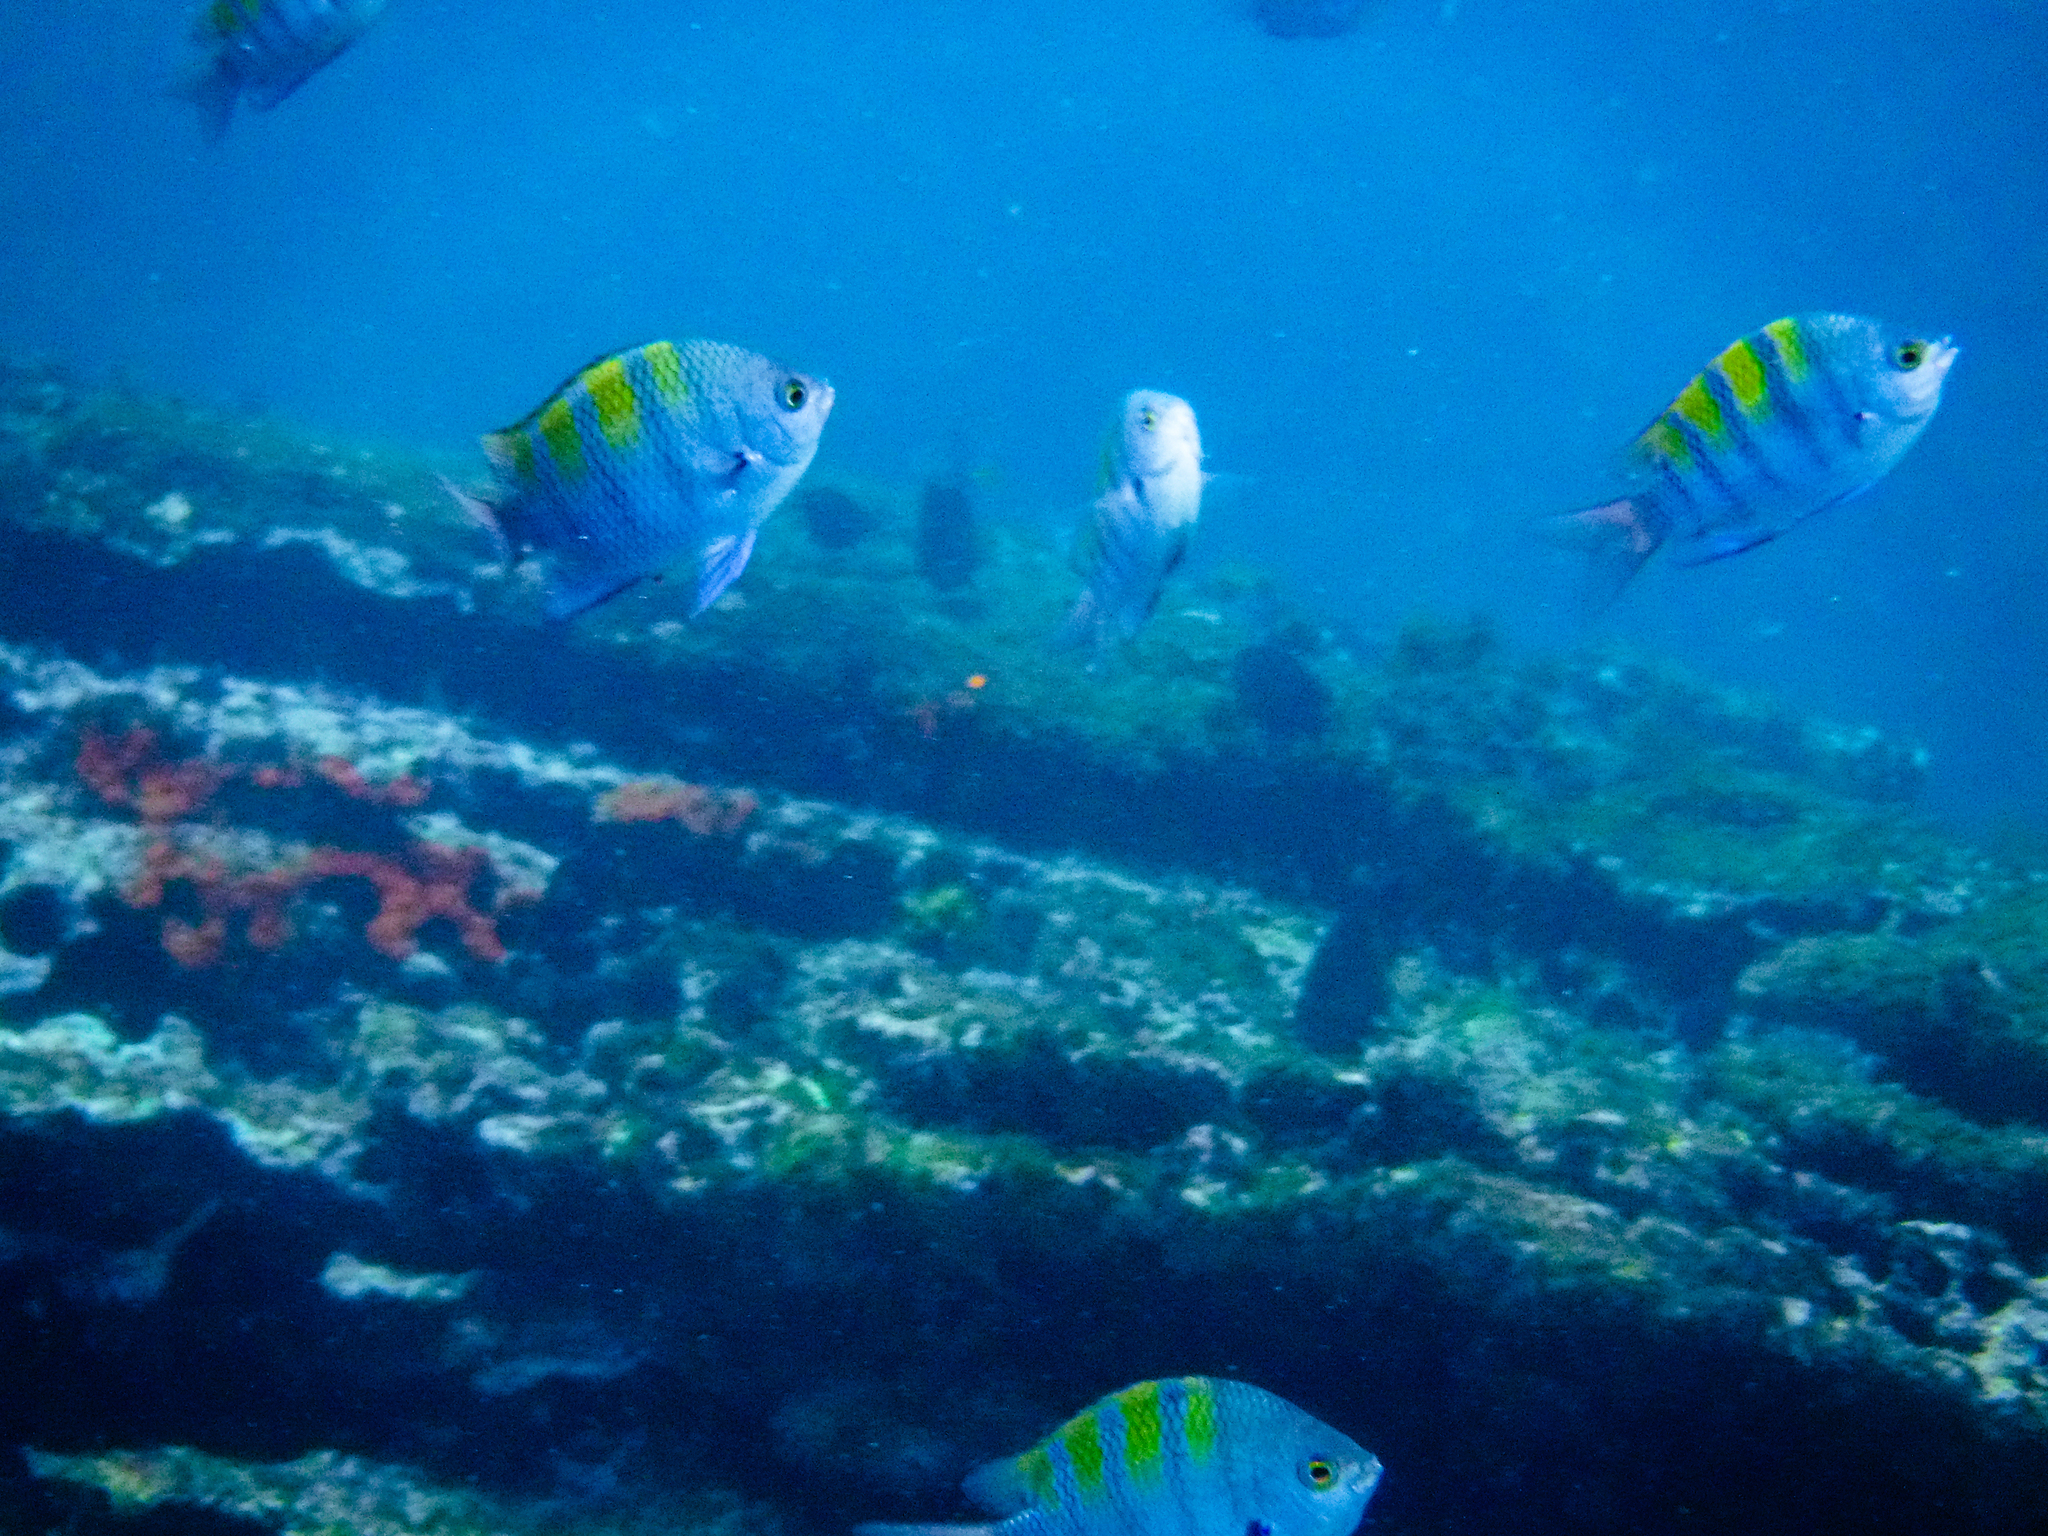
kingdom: Animalia
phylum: Chordata
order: Perciformes
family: Pomacentridae
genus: Abudefduf
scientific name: Abudefduf troschelii
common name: Panamic sergeant major
